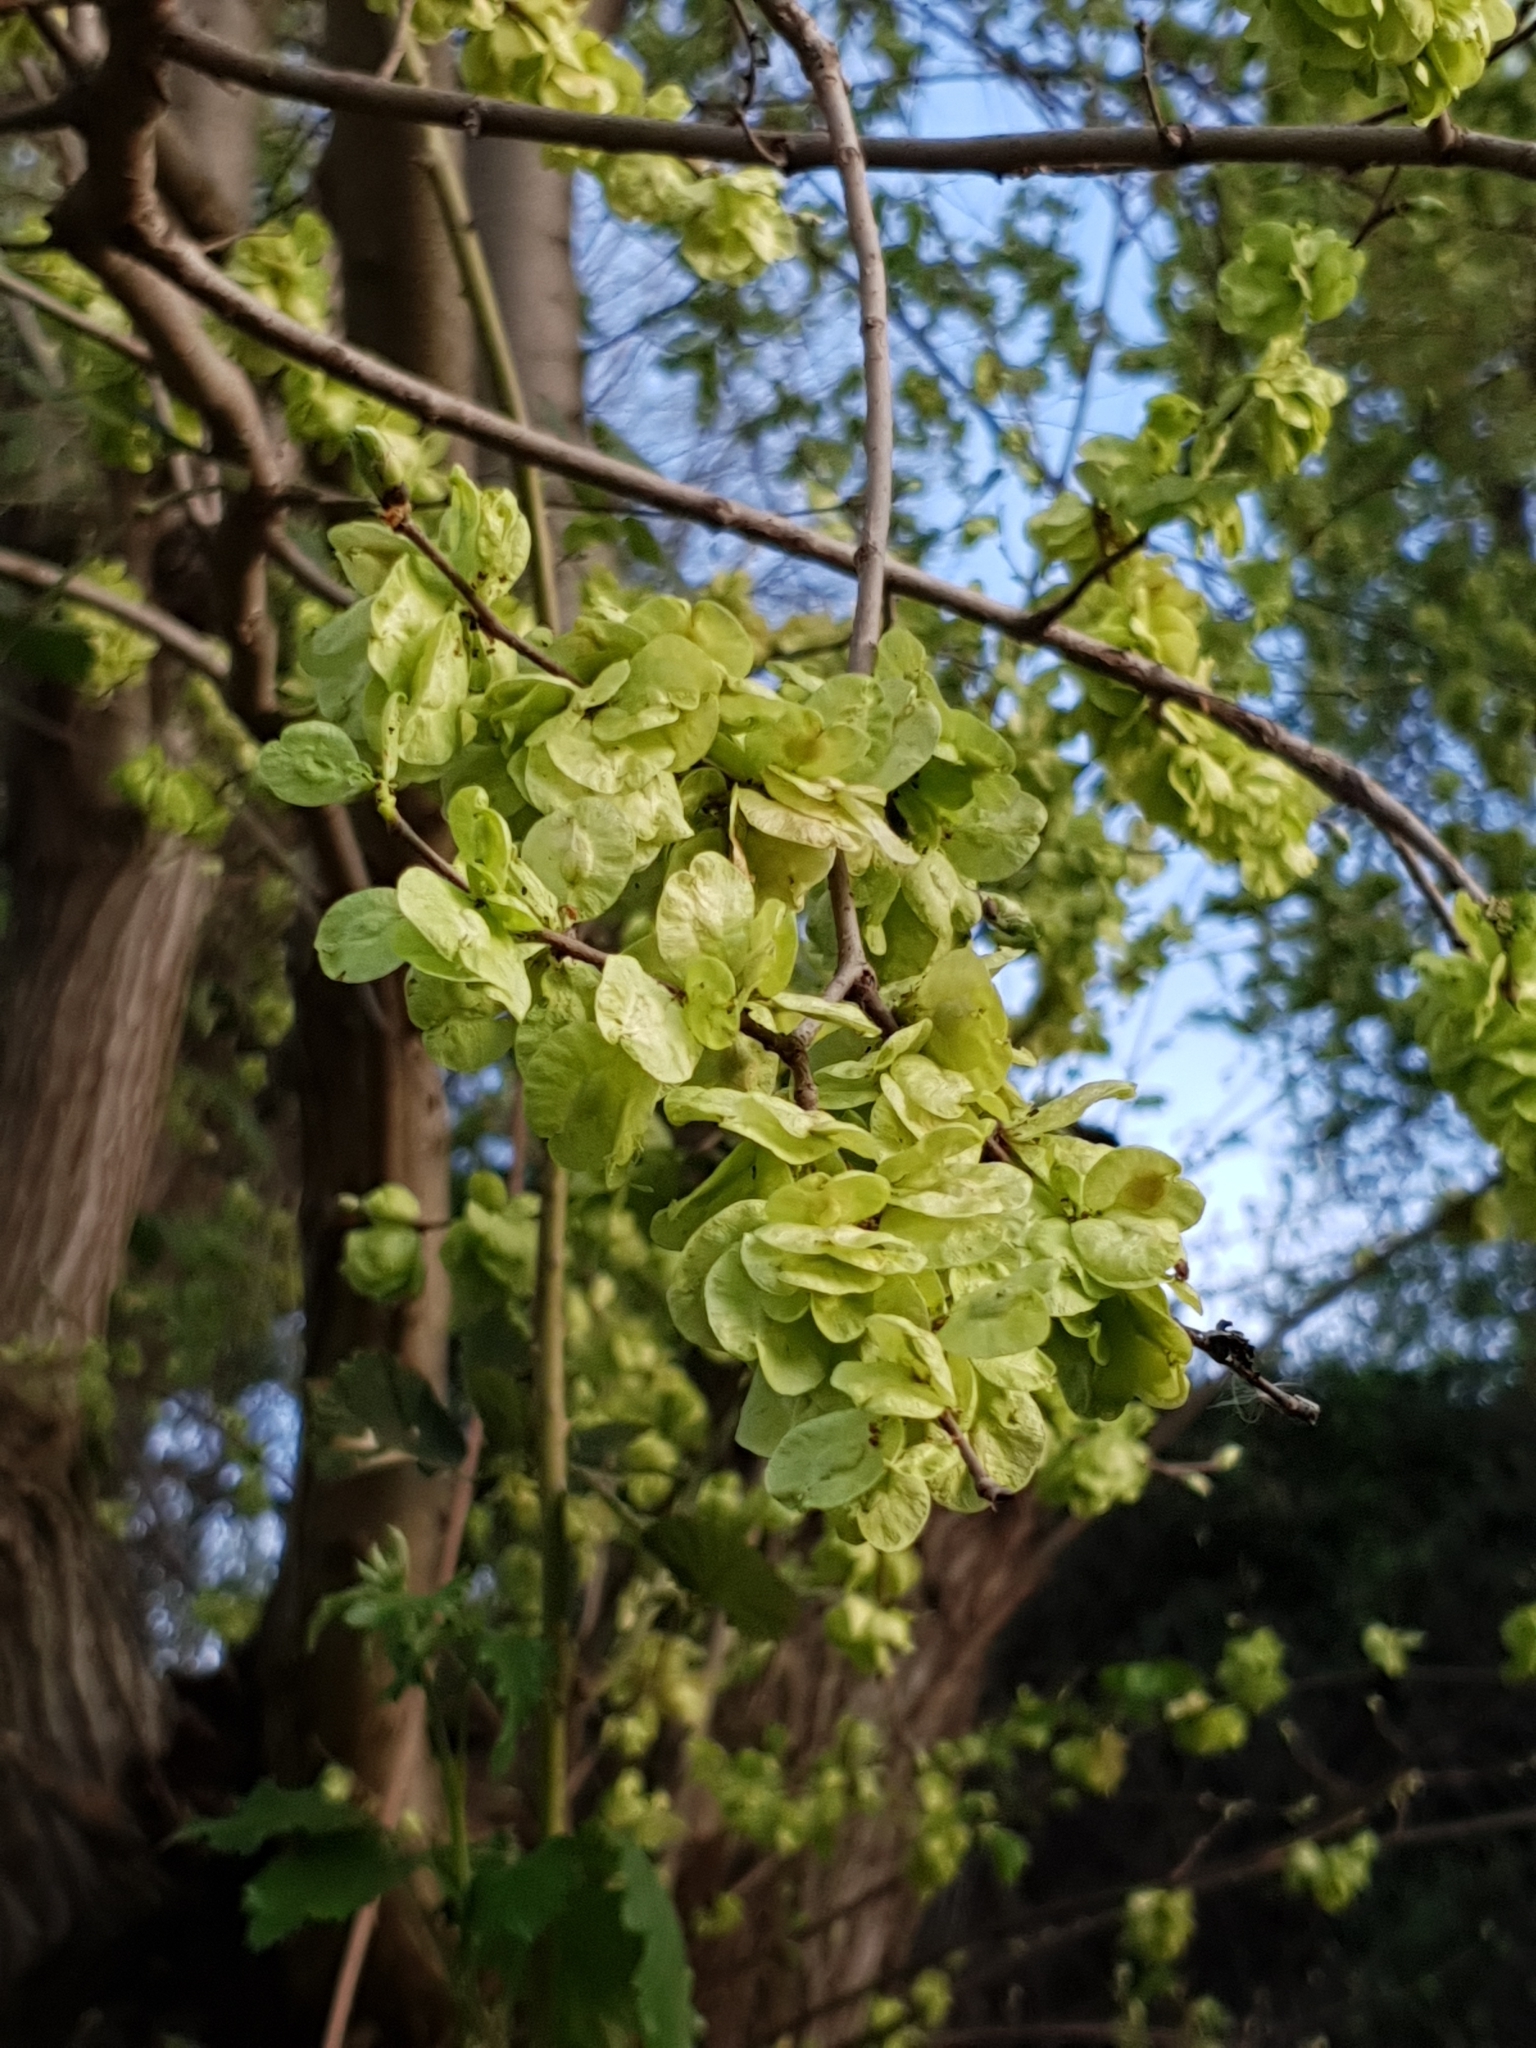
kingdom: Plantae
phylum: Tracheophyta
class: Magnoliopsida
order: Rosales
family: Ulmaceae
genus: Ulmus
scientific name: Ulmus minor
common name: Small-leaved elm
